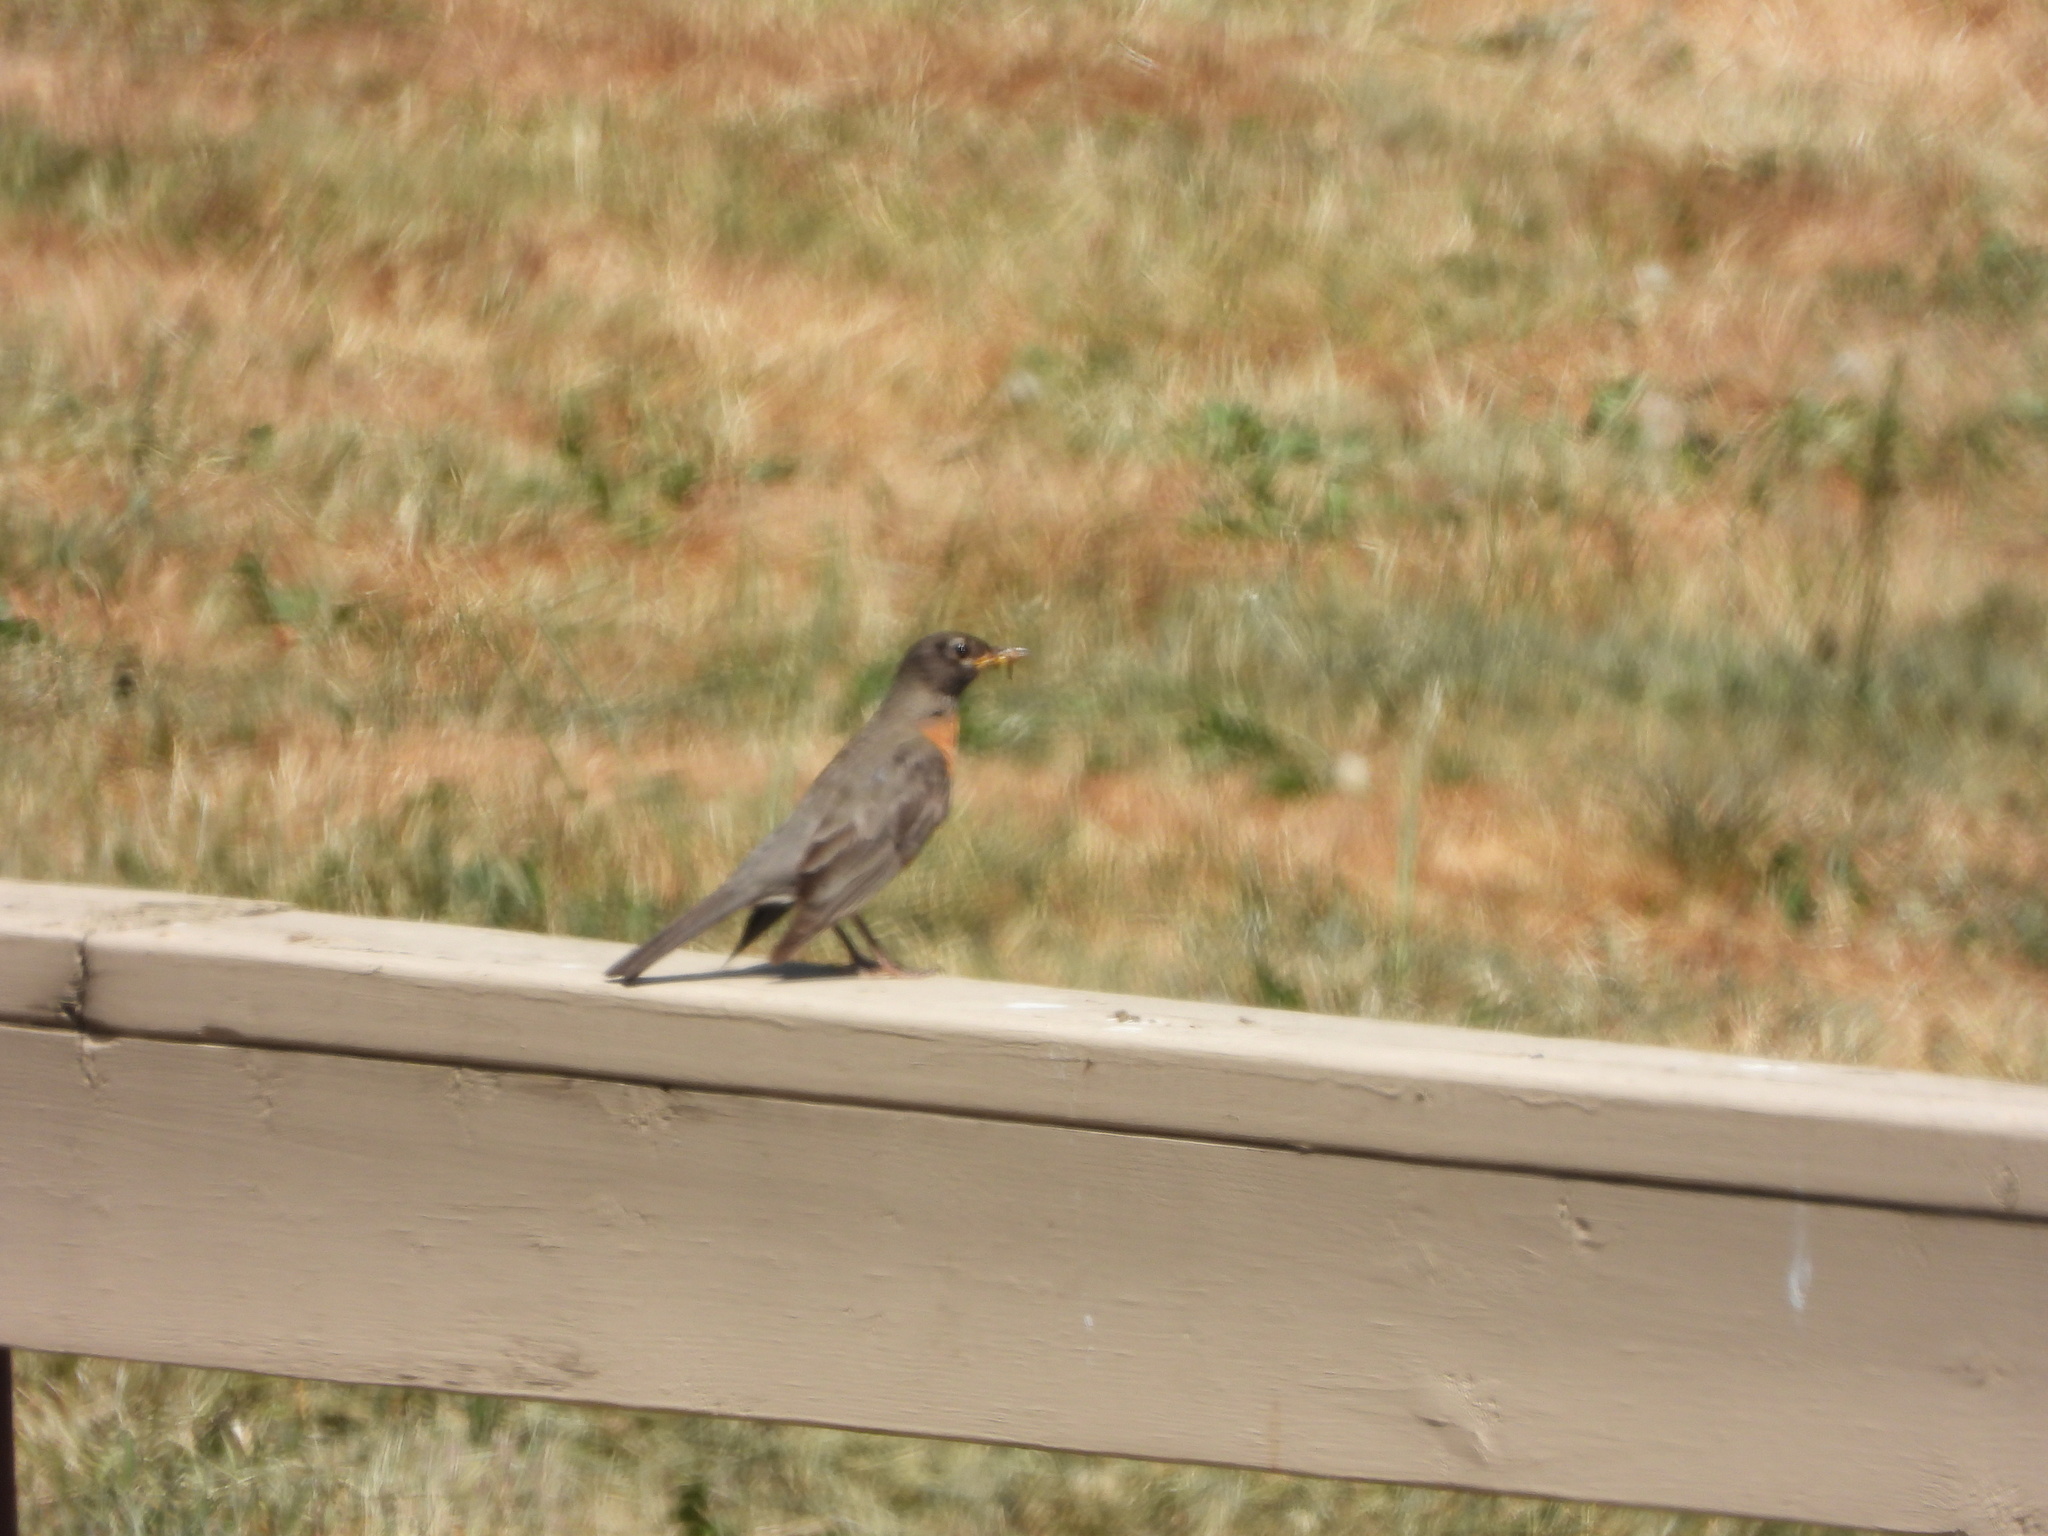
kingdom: Animalia
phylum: Chordata
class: Aves
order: Passeriformes
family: Turdidae
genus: Turdus
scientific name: Turdus migratorius
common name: American robin
